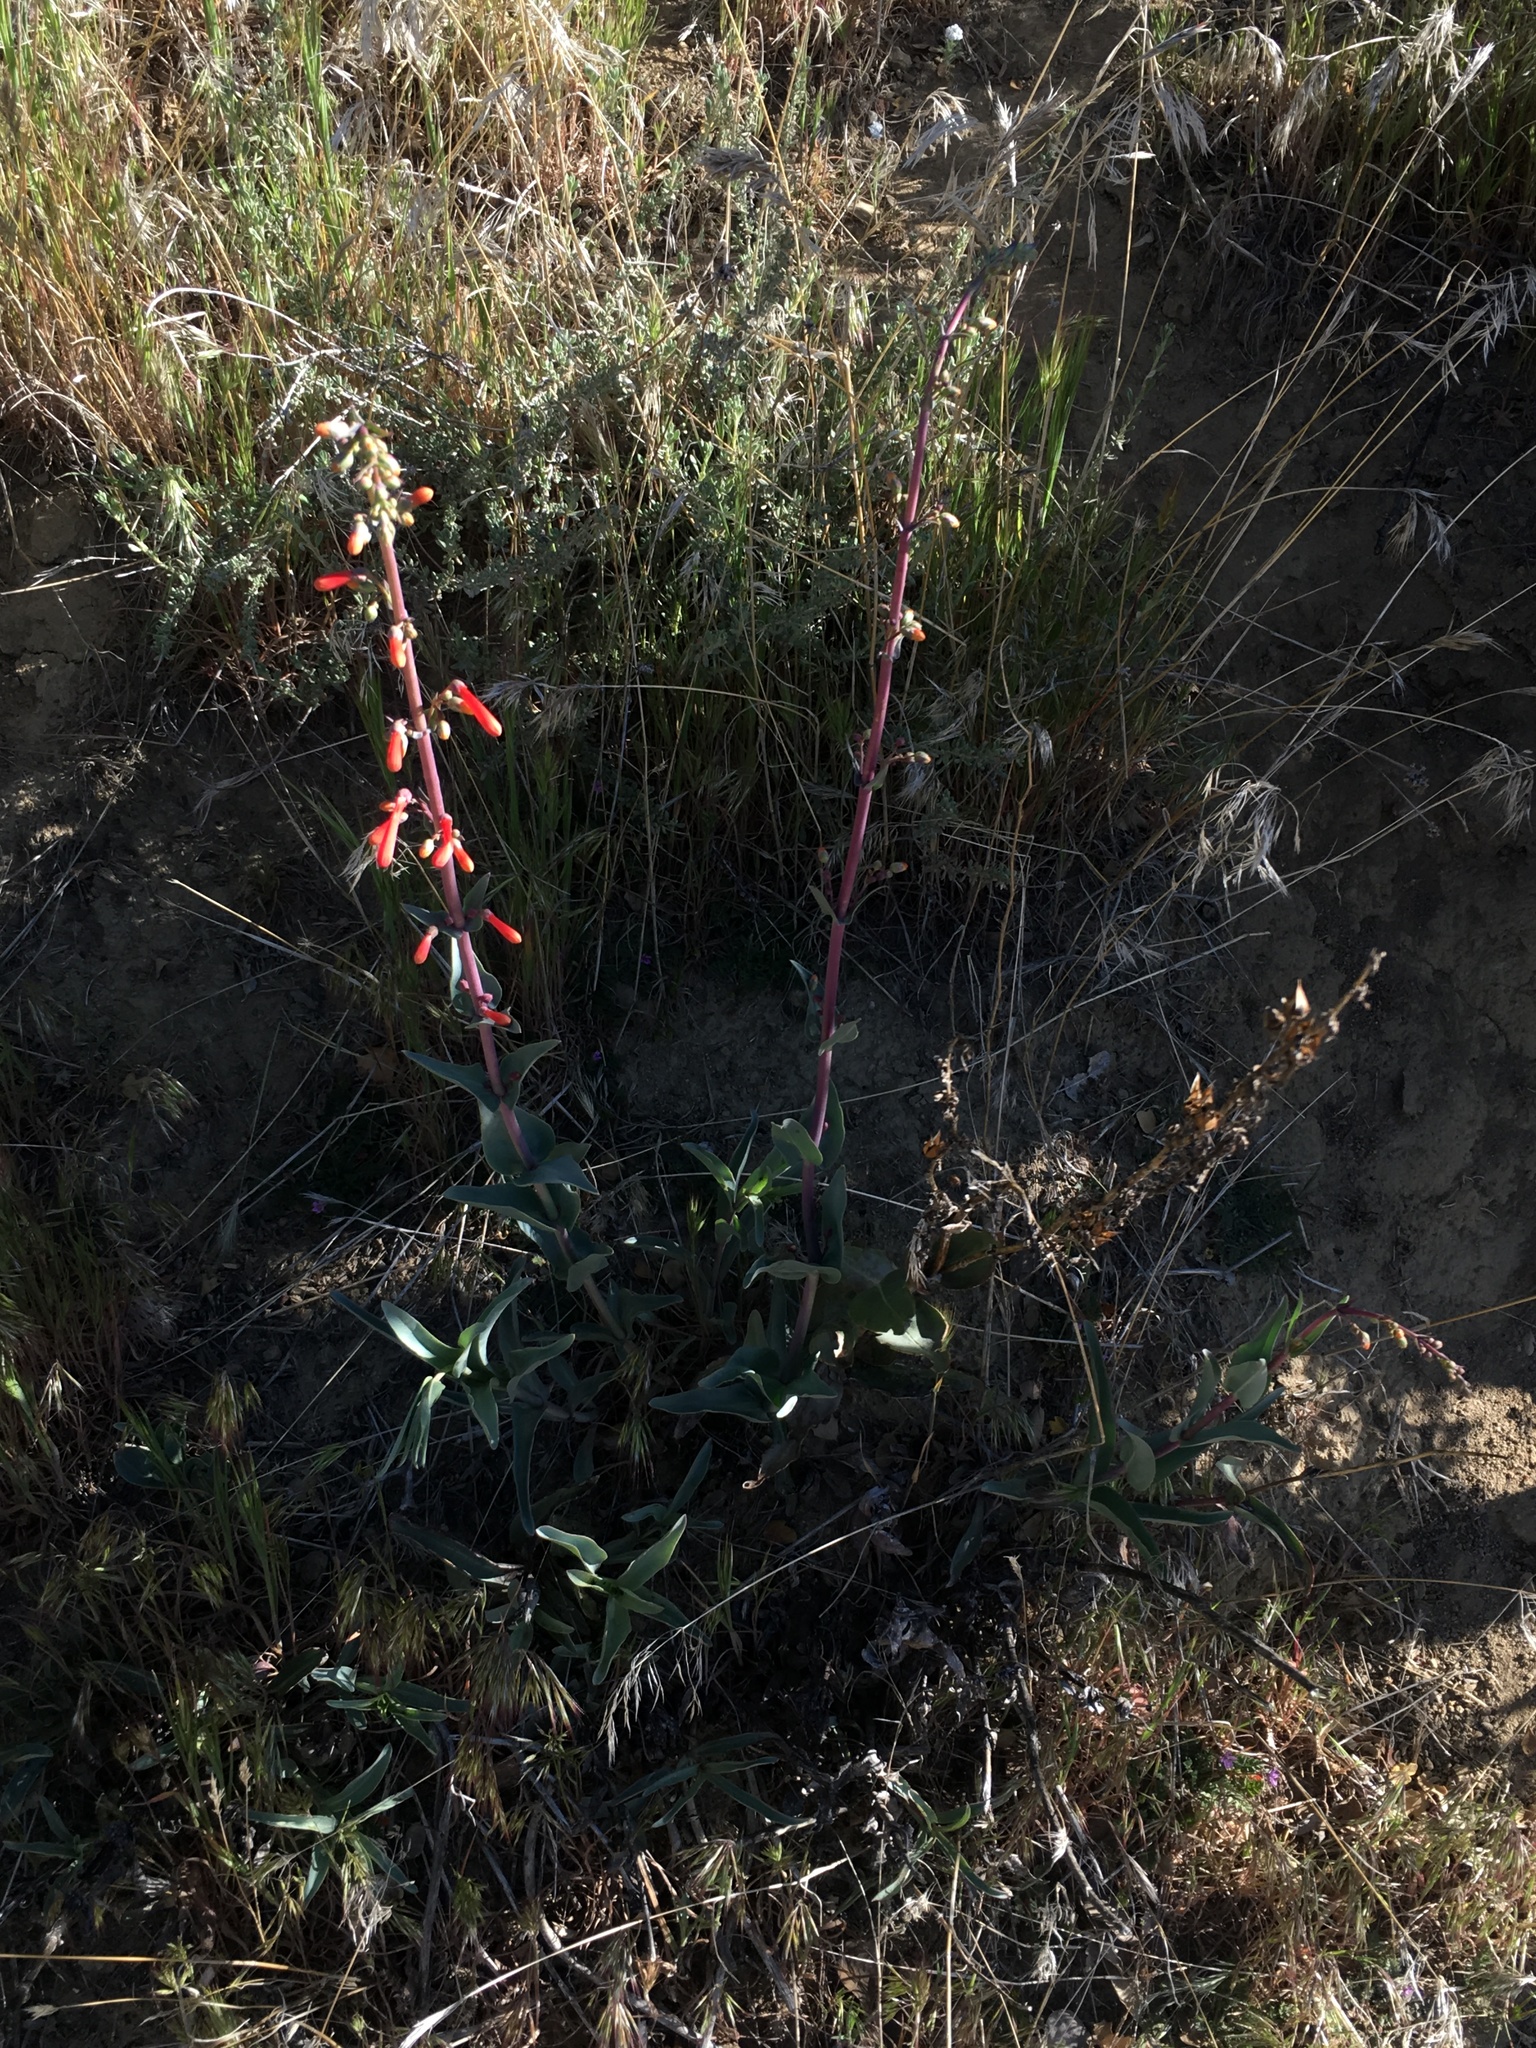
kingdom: Plantae
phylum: Tracheophyta
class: Magnoliopsida
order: Lamiales
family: Plantaginaceae
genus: Penstemon
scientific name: Penstemon centranthifolius
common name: Scarlet bugler
